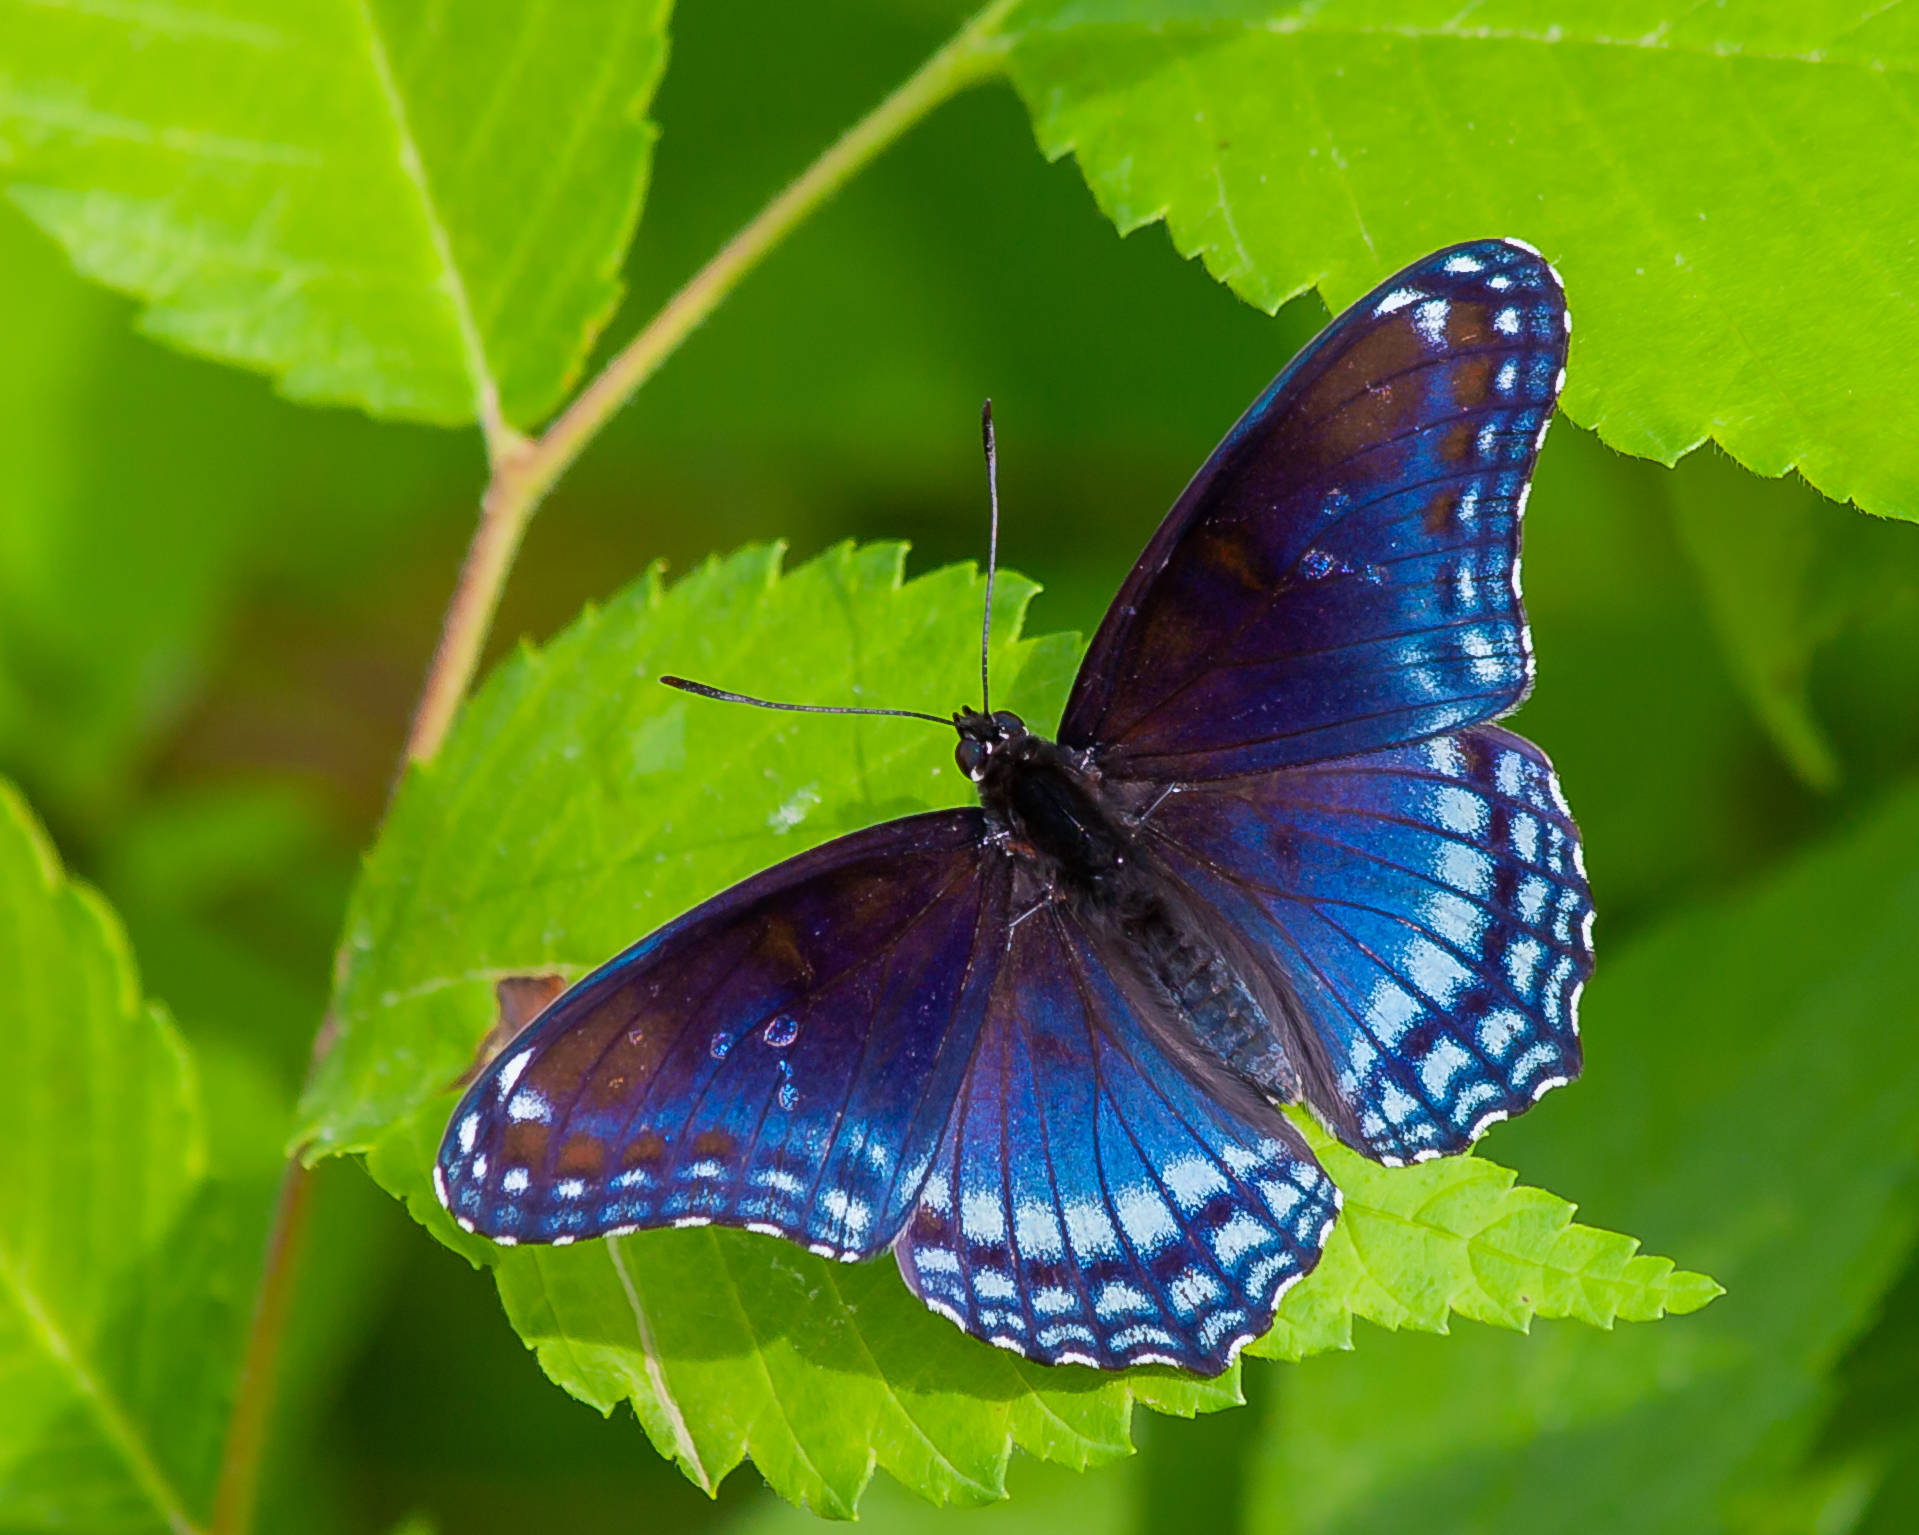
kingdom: Animalia
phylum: Arthropoda
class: Insecta
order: Lepidoptera
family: Nymphalidae
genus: Limenitis
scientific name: Limenitis arthemis
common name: Red-spotted admiral
